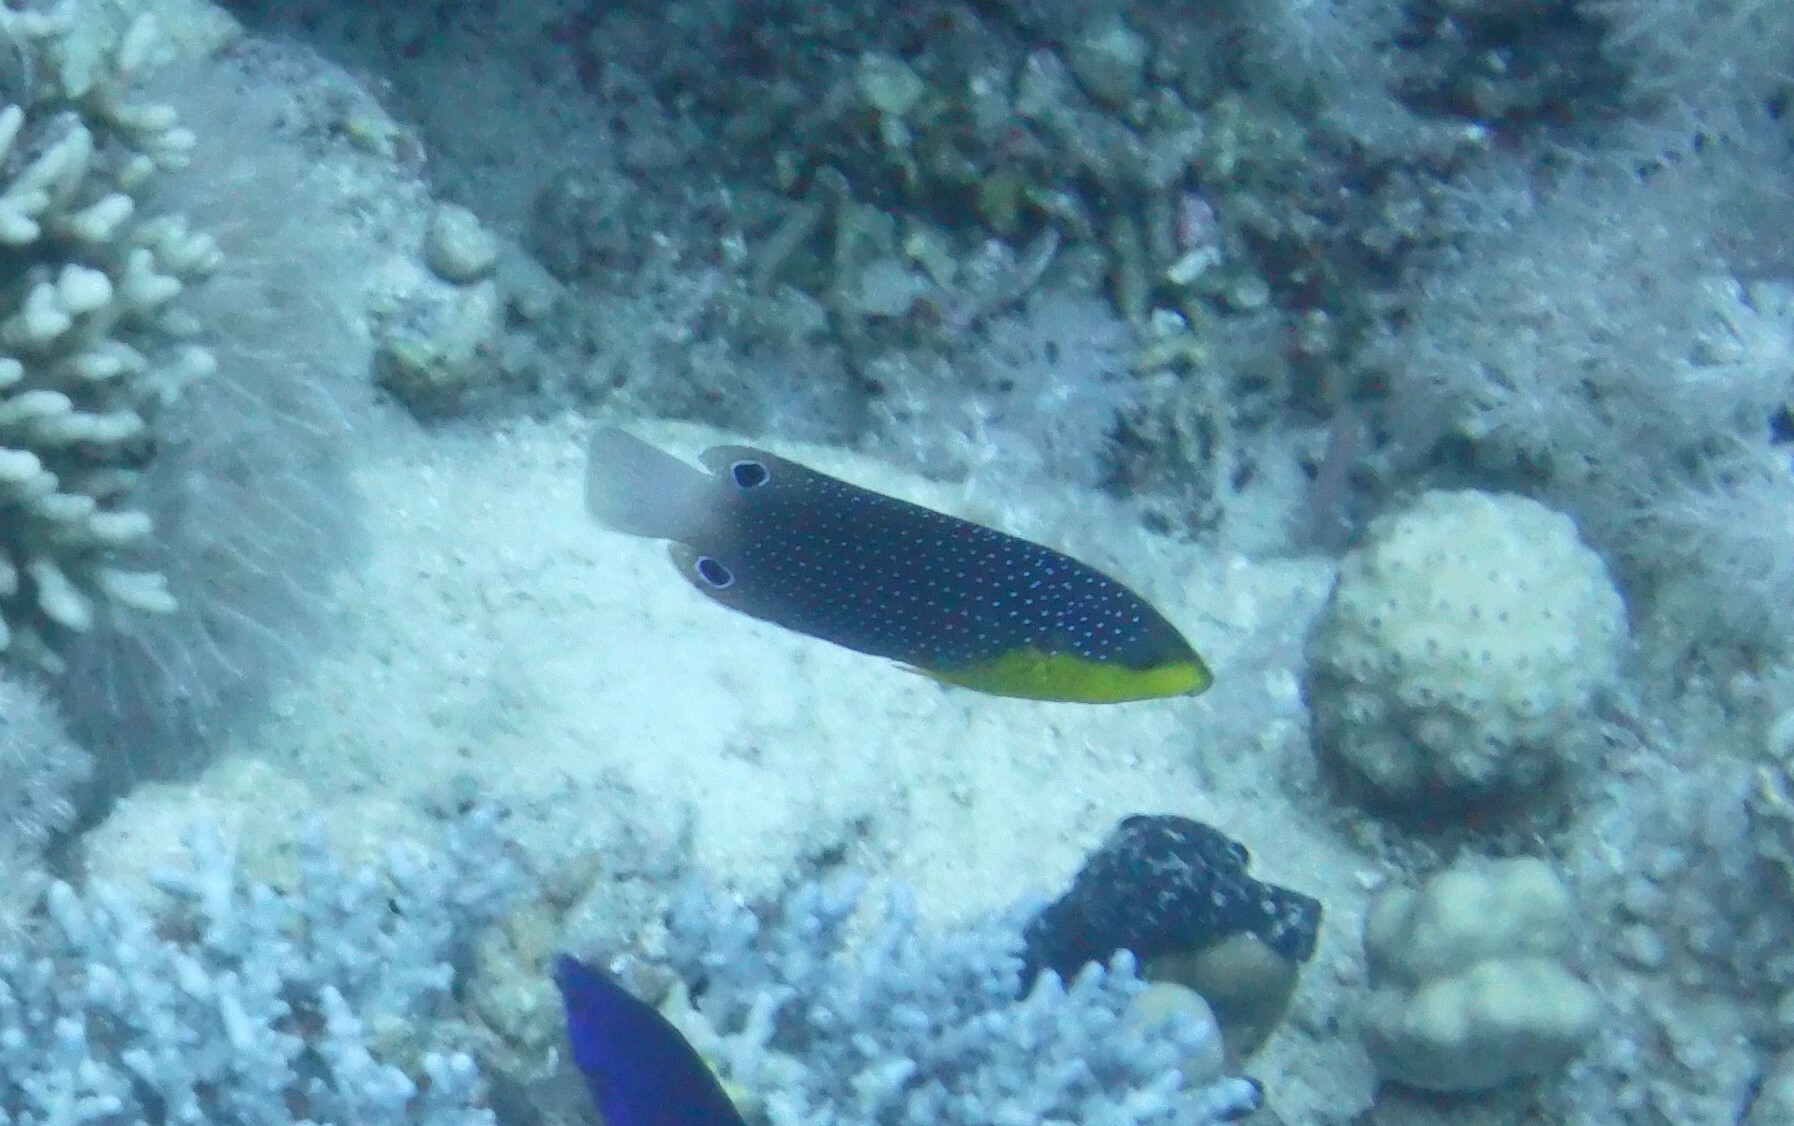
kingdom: Animalia
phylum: Chordata
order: Perciformes
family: Labridae
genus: Anampses
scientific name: Anampses twistii
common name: Yellowbreasted wrasse
